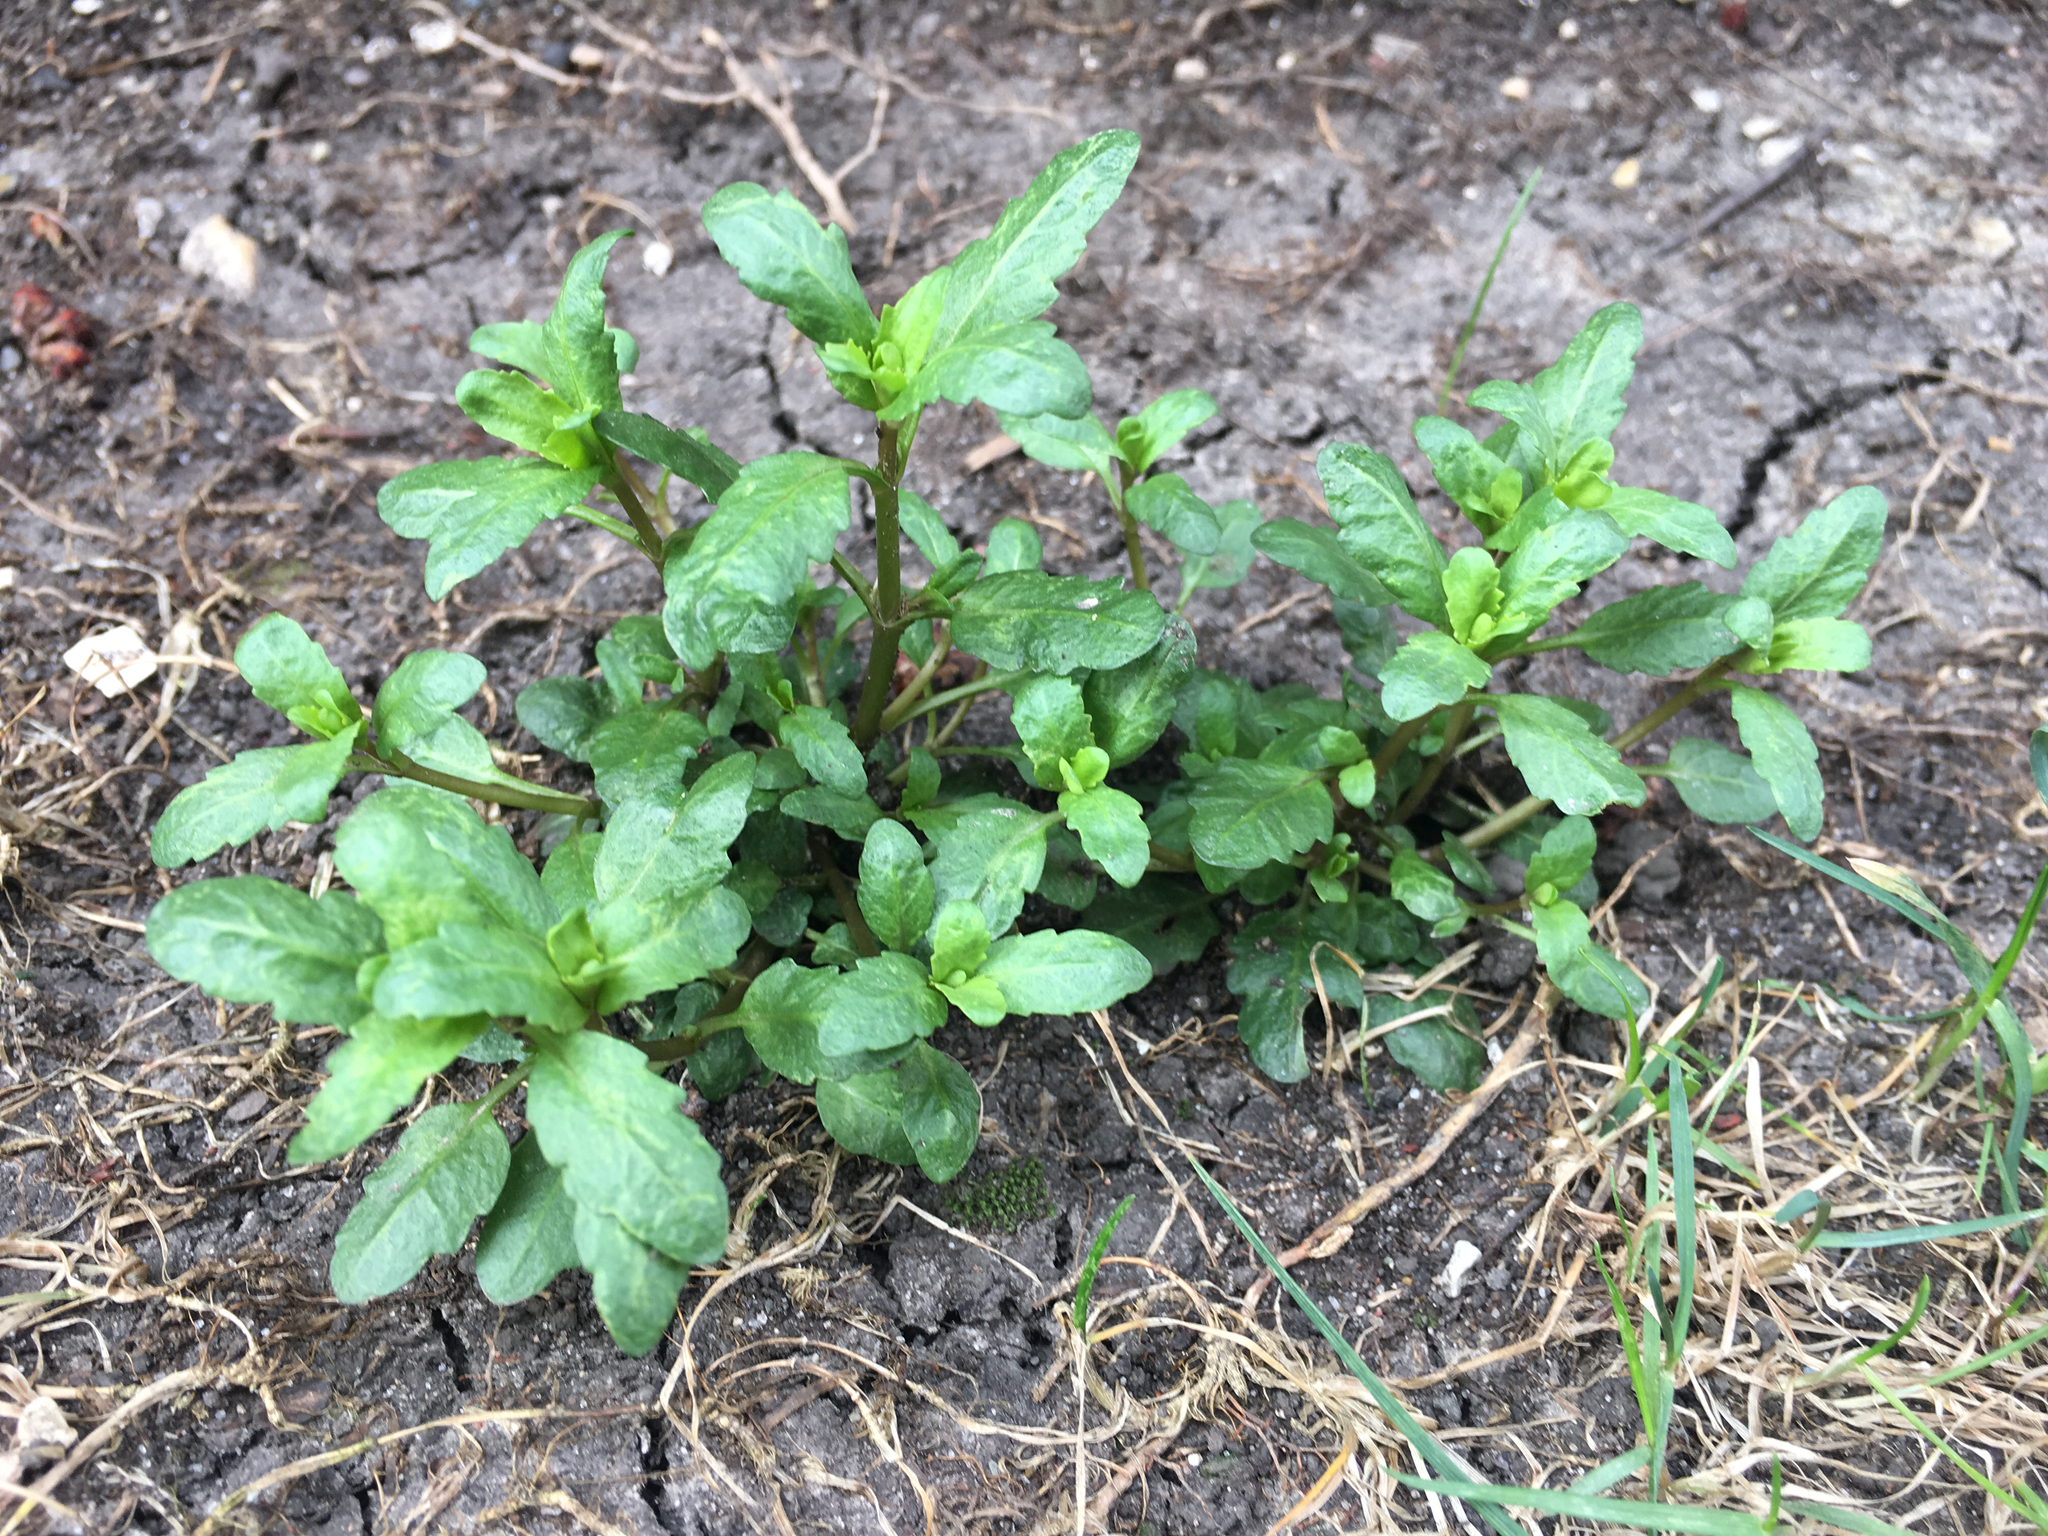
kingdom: Plantae
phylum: Tracheophyta
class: Magnoliopsida
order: Brassicales
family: Brassicaceae
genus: Thlaspi
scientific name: Thlaspi arvense
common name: Field pennycress
